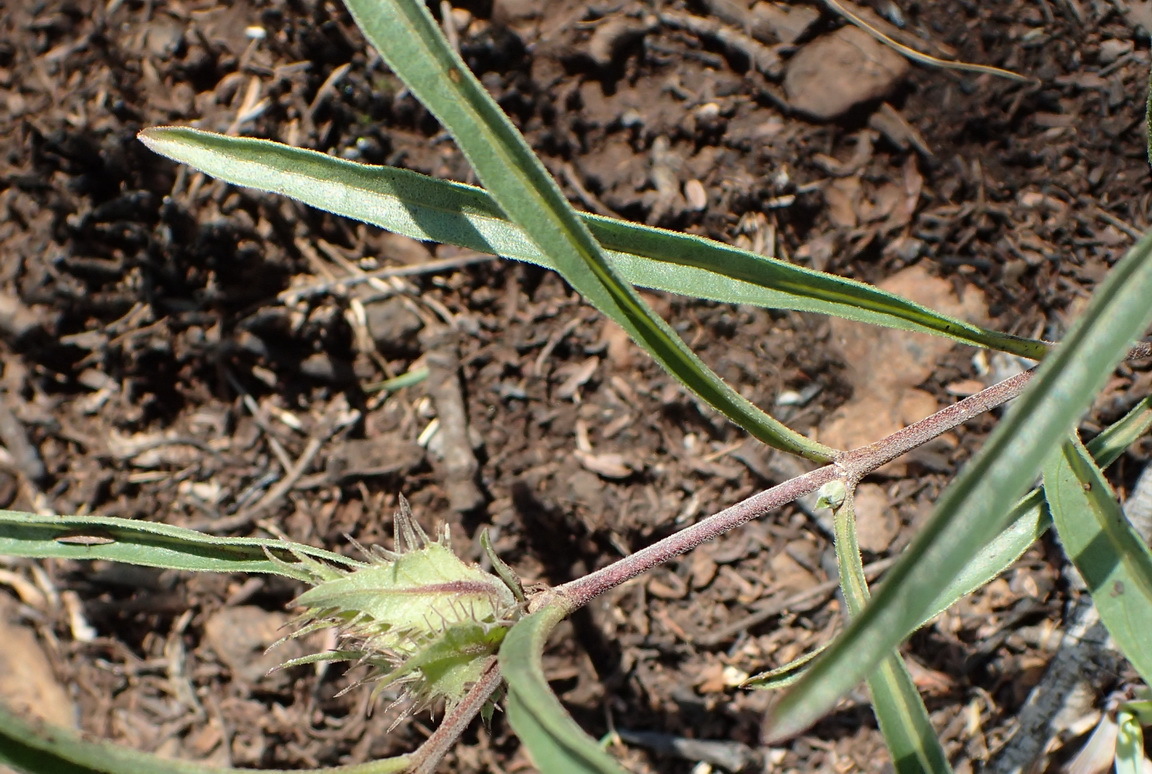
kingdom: Plantae
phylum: Tracheophyta
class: Magnoliopsida
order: Lamiales
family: Acanthaceae
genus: Crabbea
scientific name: Crabbea cirsioides
